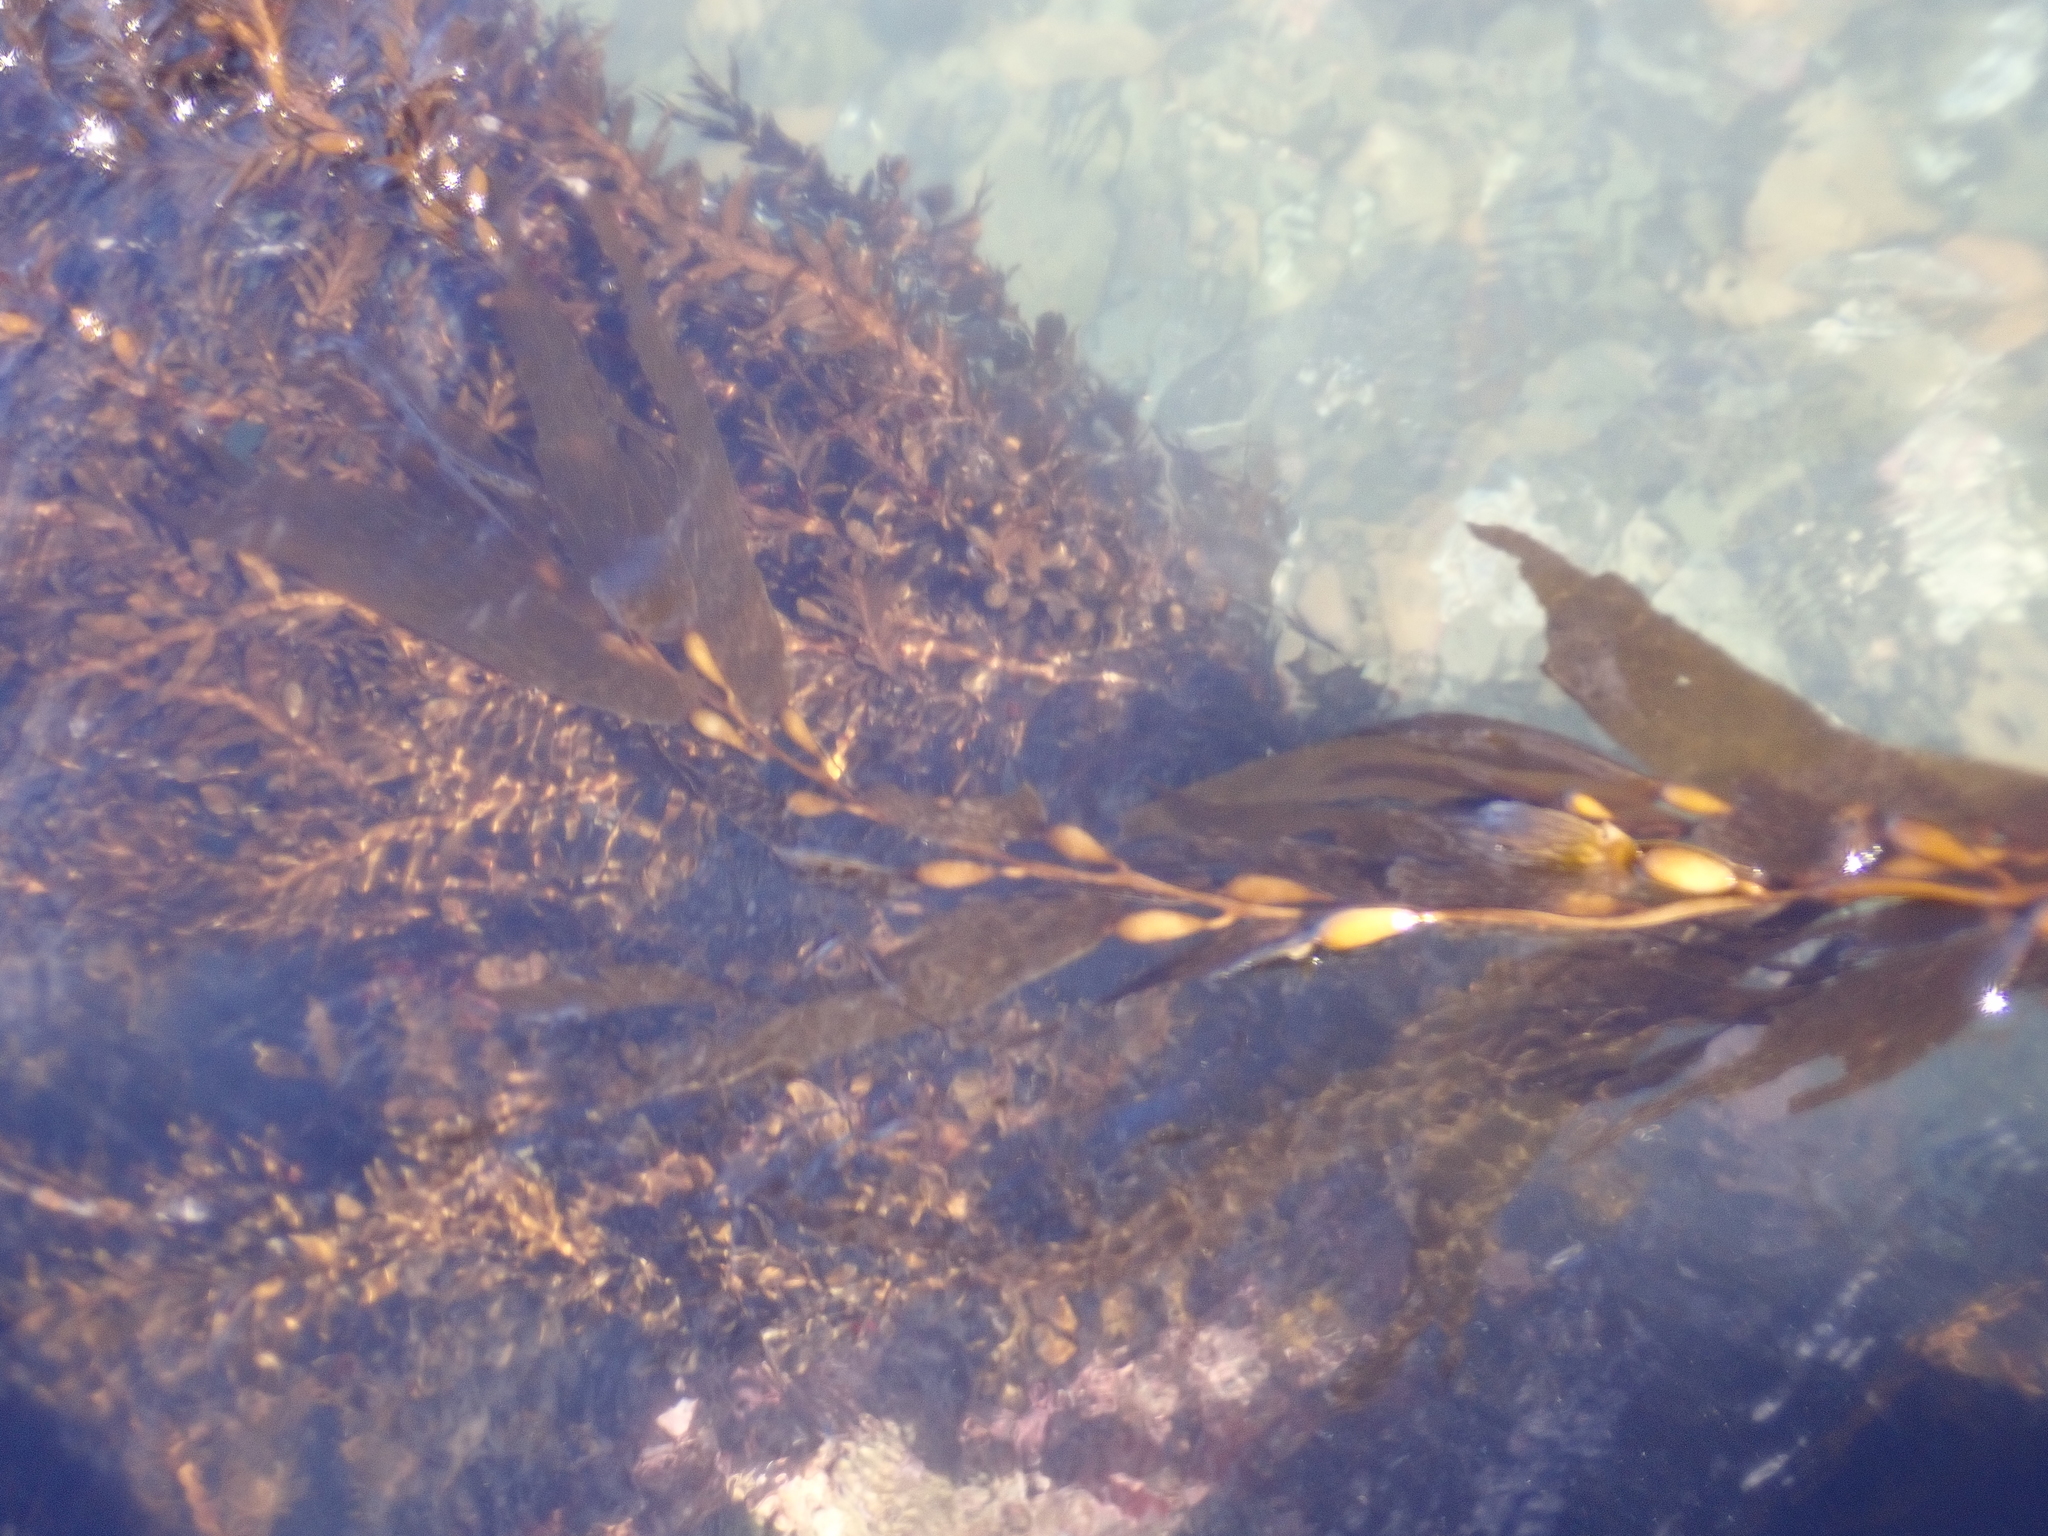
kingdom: Chromista
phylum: Ochrophyta
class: Phaeophyceae
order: Laminariales
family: Laminariaceae
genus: Macrocystis
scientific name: Macrocystis pyrifera
